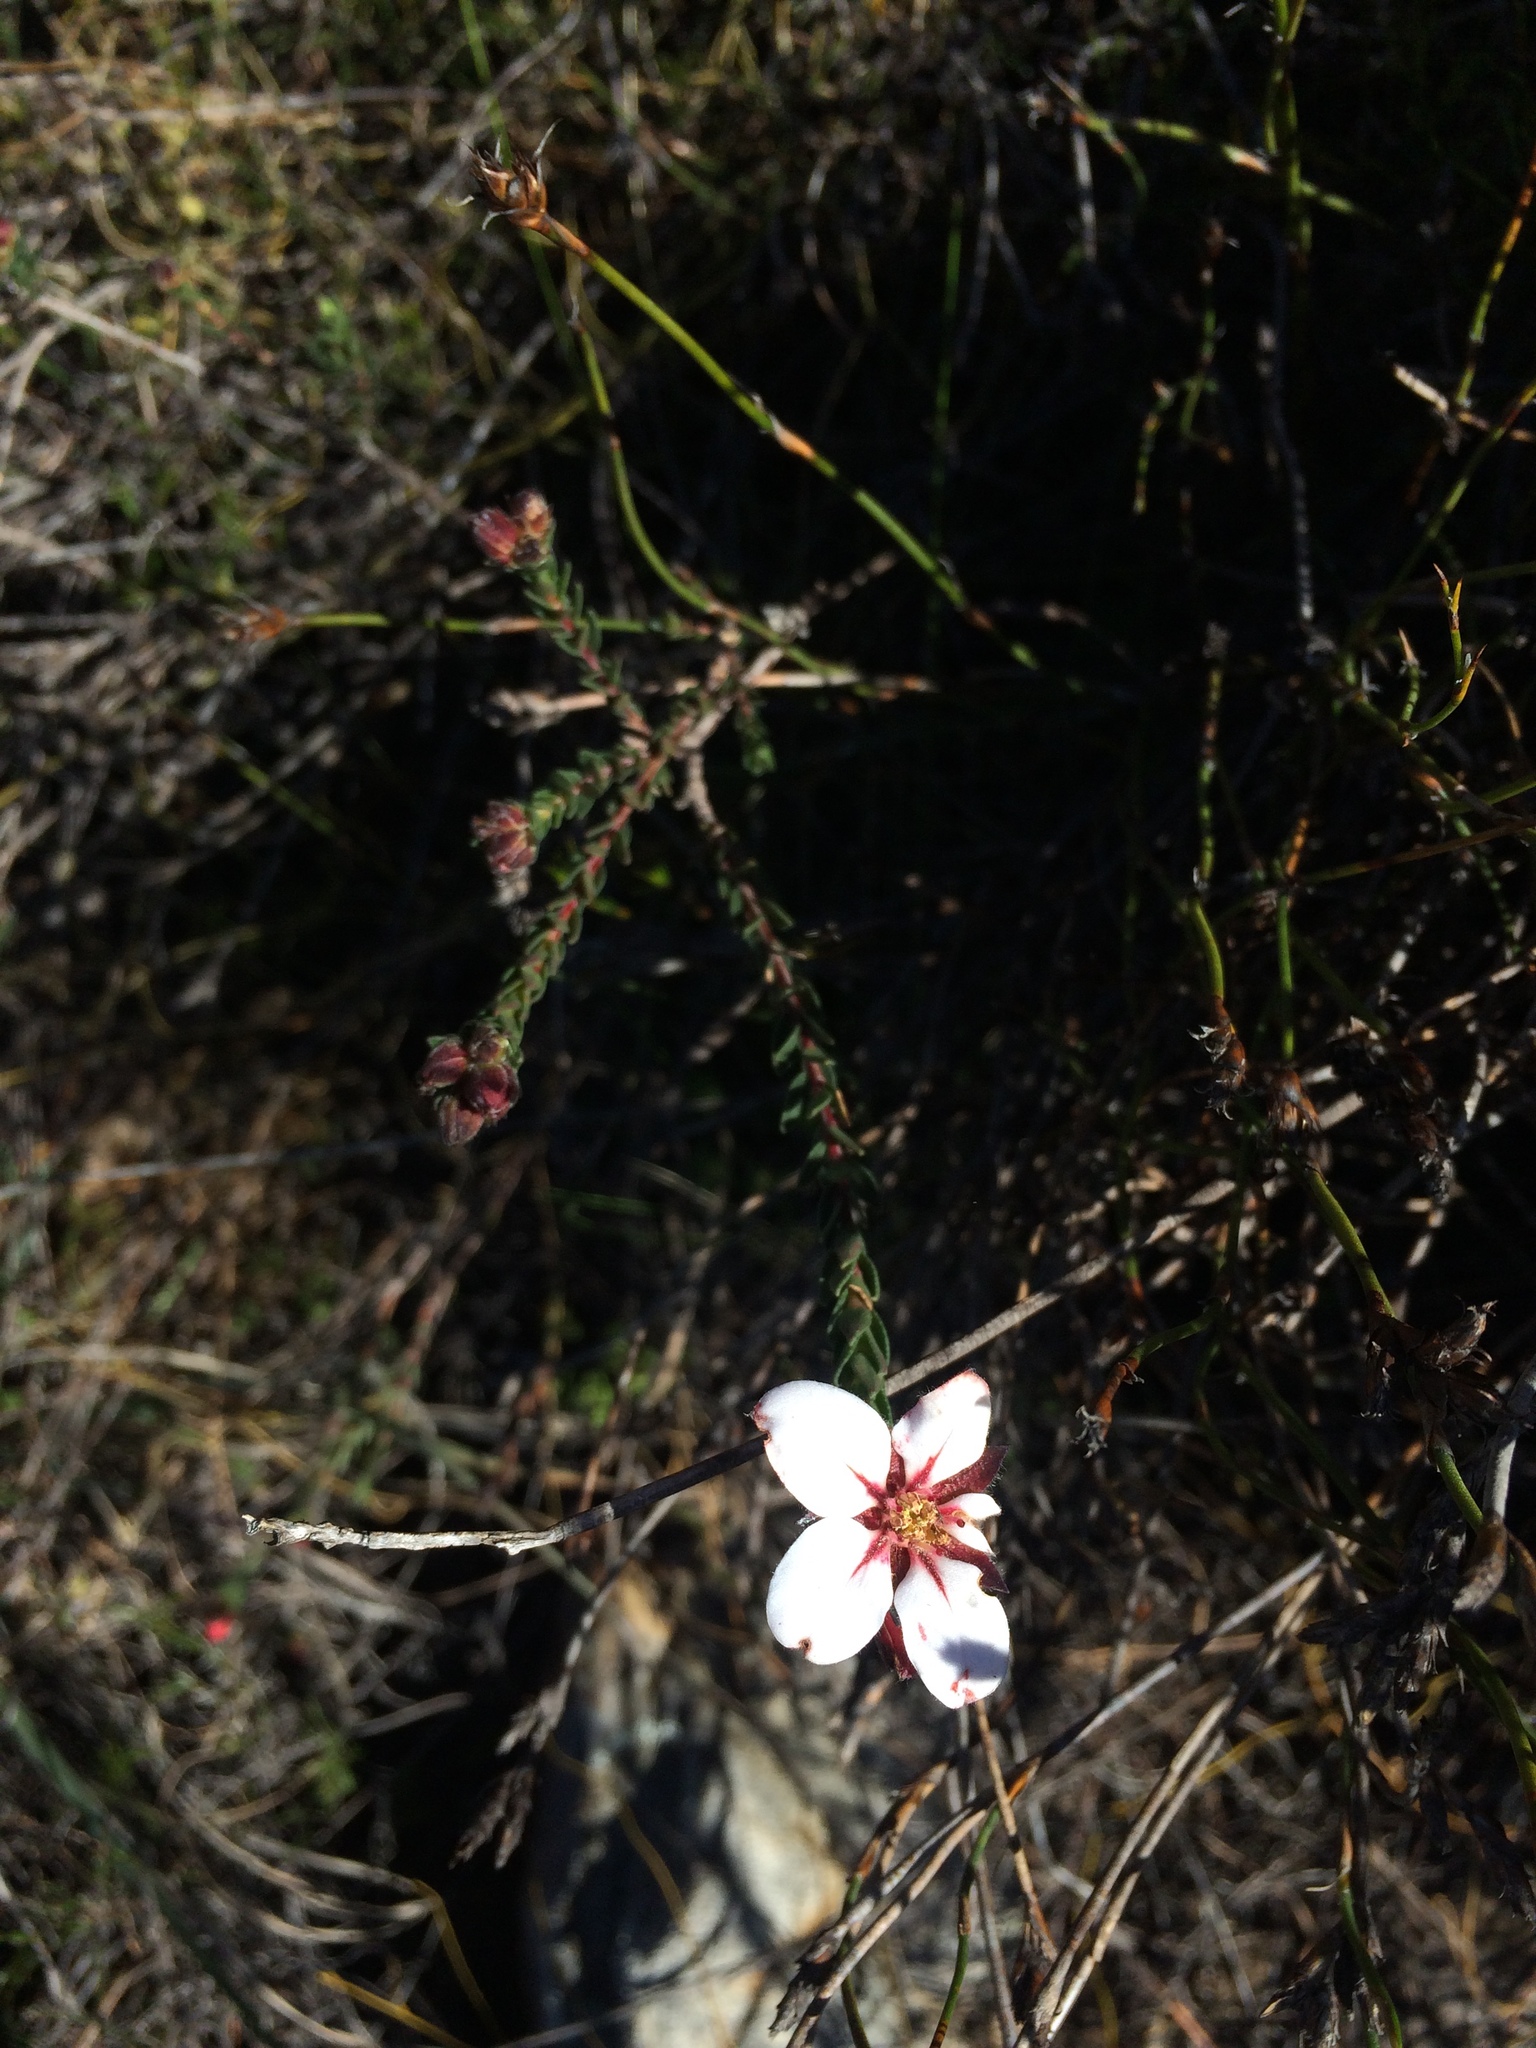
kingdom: Plantae
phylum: Tracheophyta
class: Magnoliopsida
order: Sapindales
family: Rutaceae
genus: Adenandra
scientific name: Adenandra villosa
